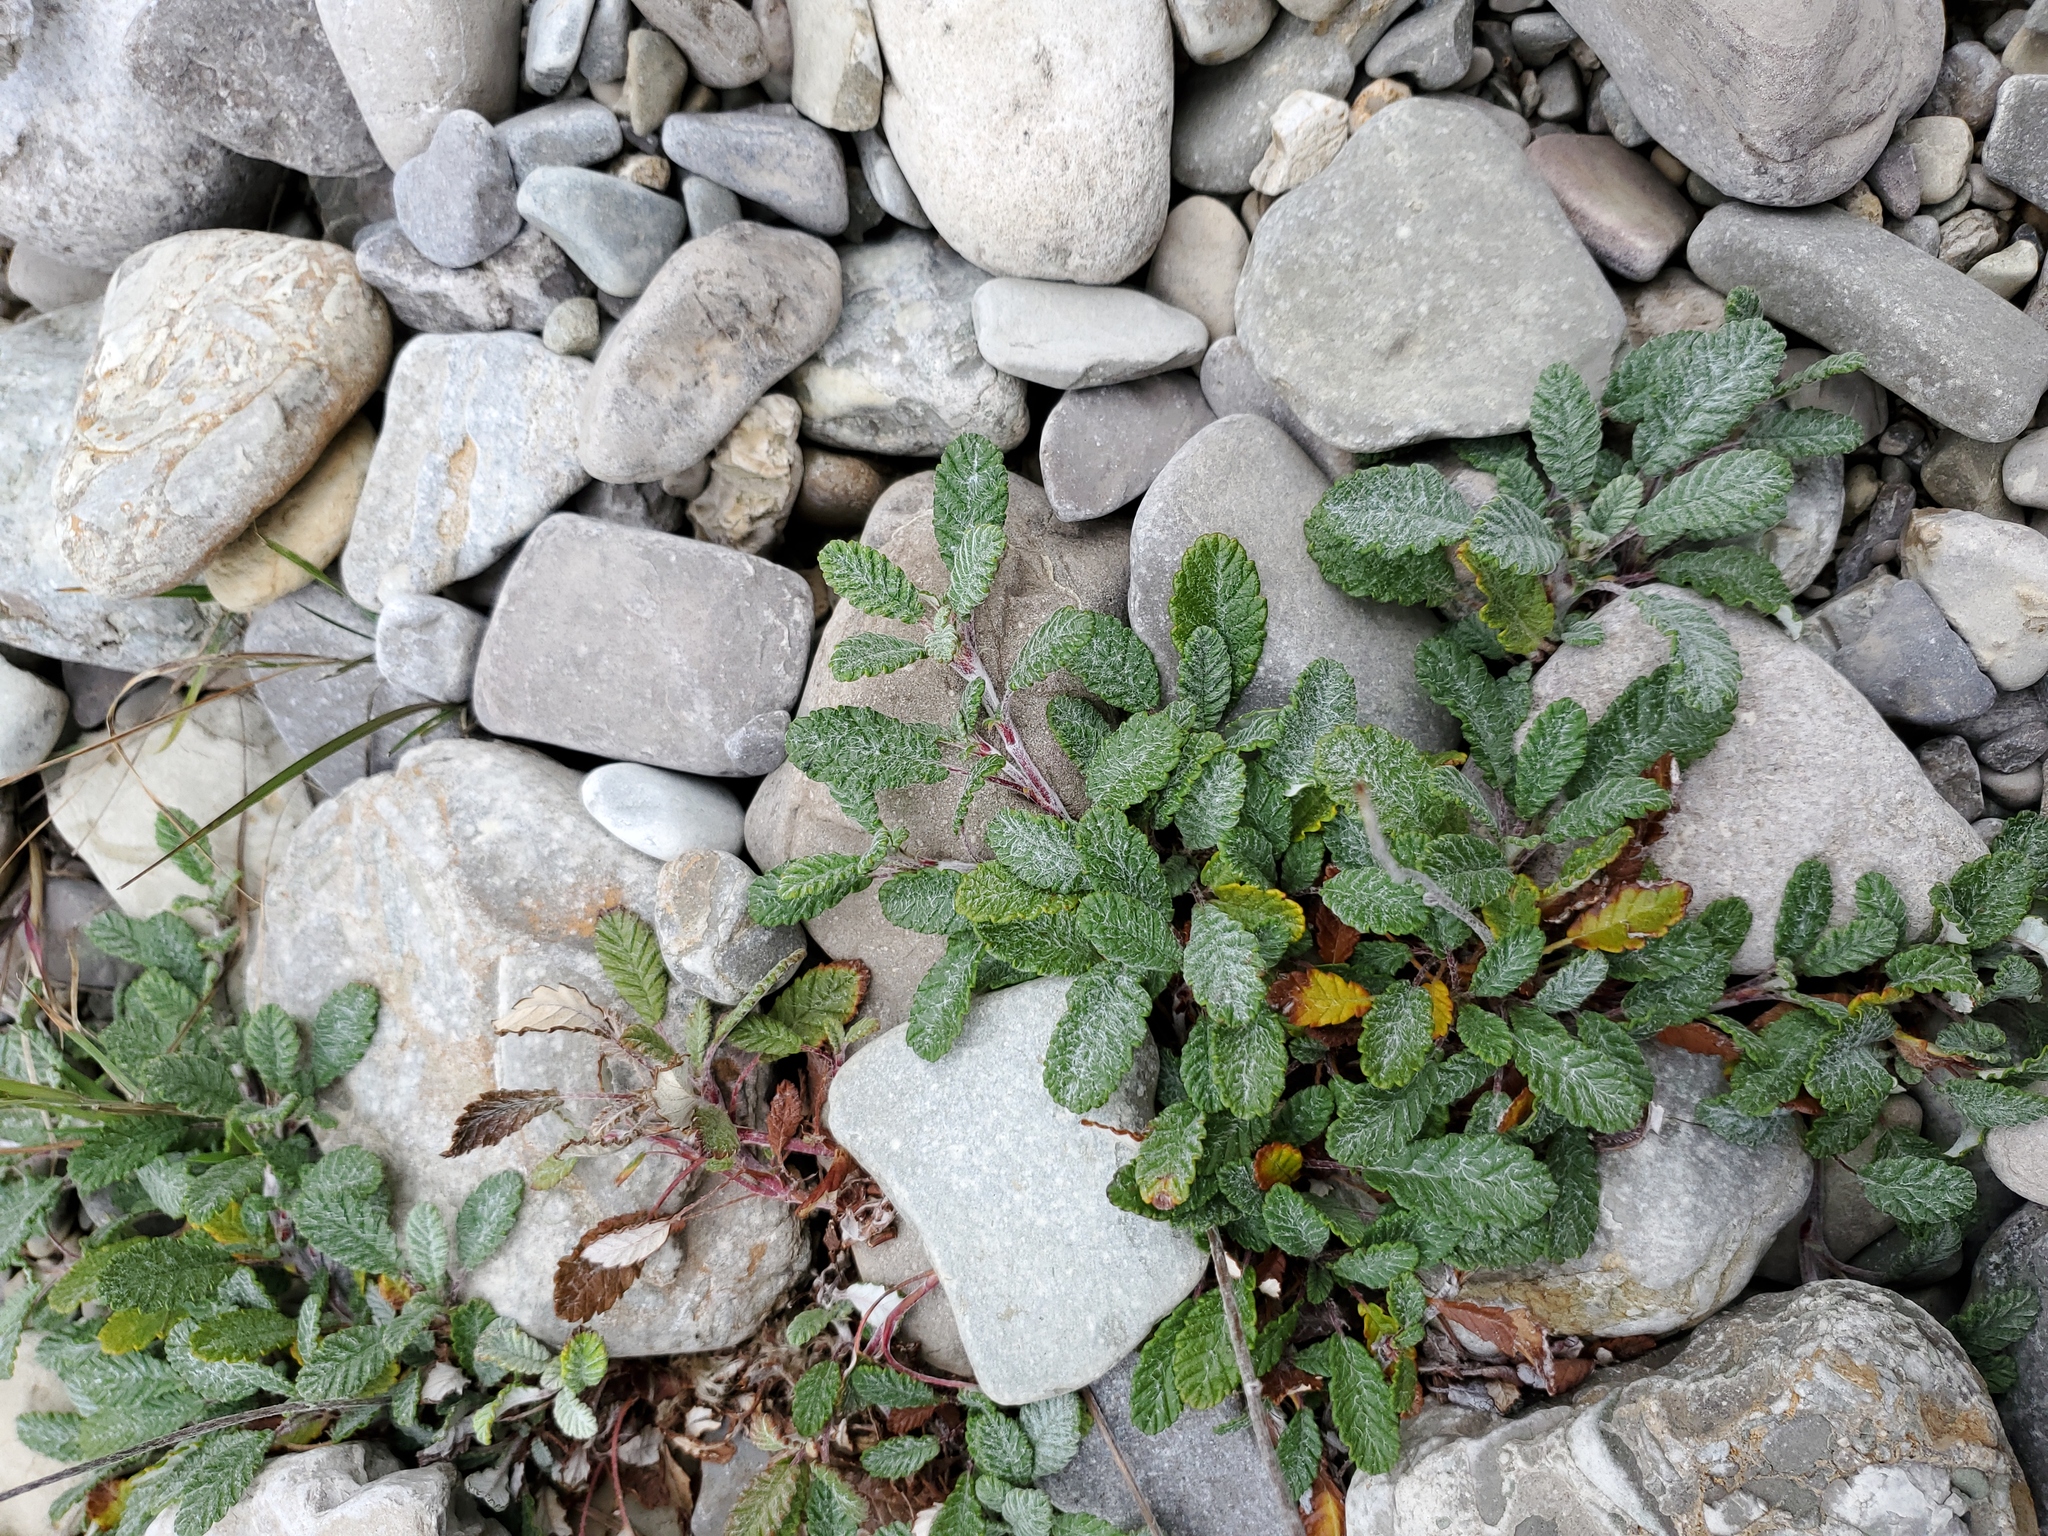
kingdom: Plantae
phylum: Tracheophyta
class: Magnoliopsida
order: Rosales
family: Rosaceae
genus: Dryas
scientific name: Dryas drummondii
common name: Drummond's dryad
